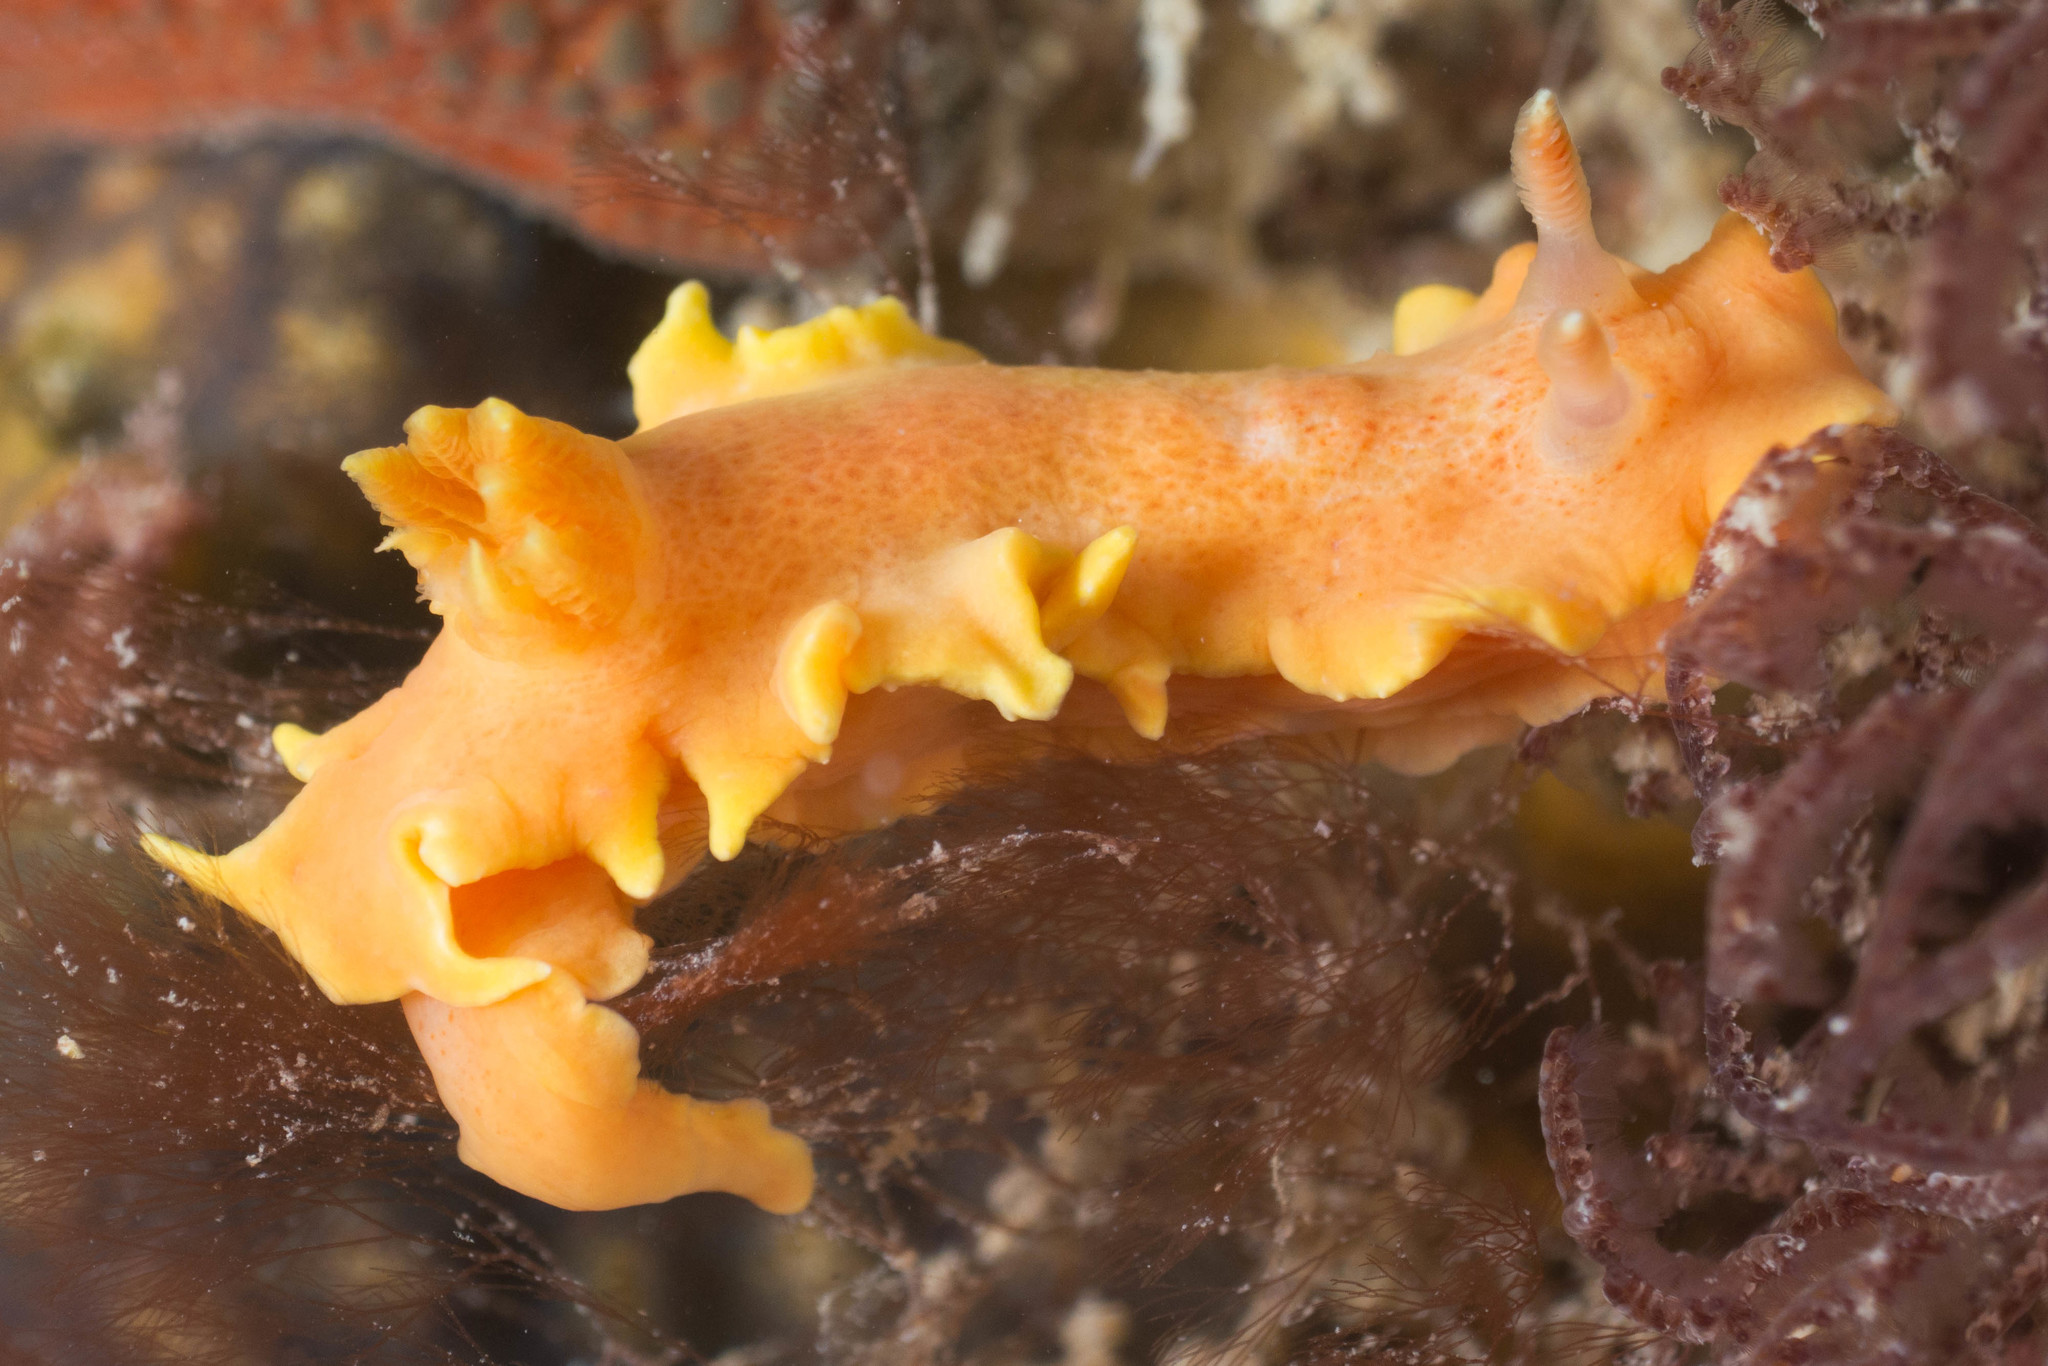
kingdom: Animalia
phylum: Mollusca
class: Gastropoda
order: Nudibranchia
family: Chromodorididae
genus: Verconia
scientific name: Verconia verconis
